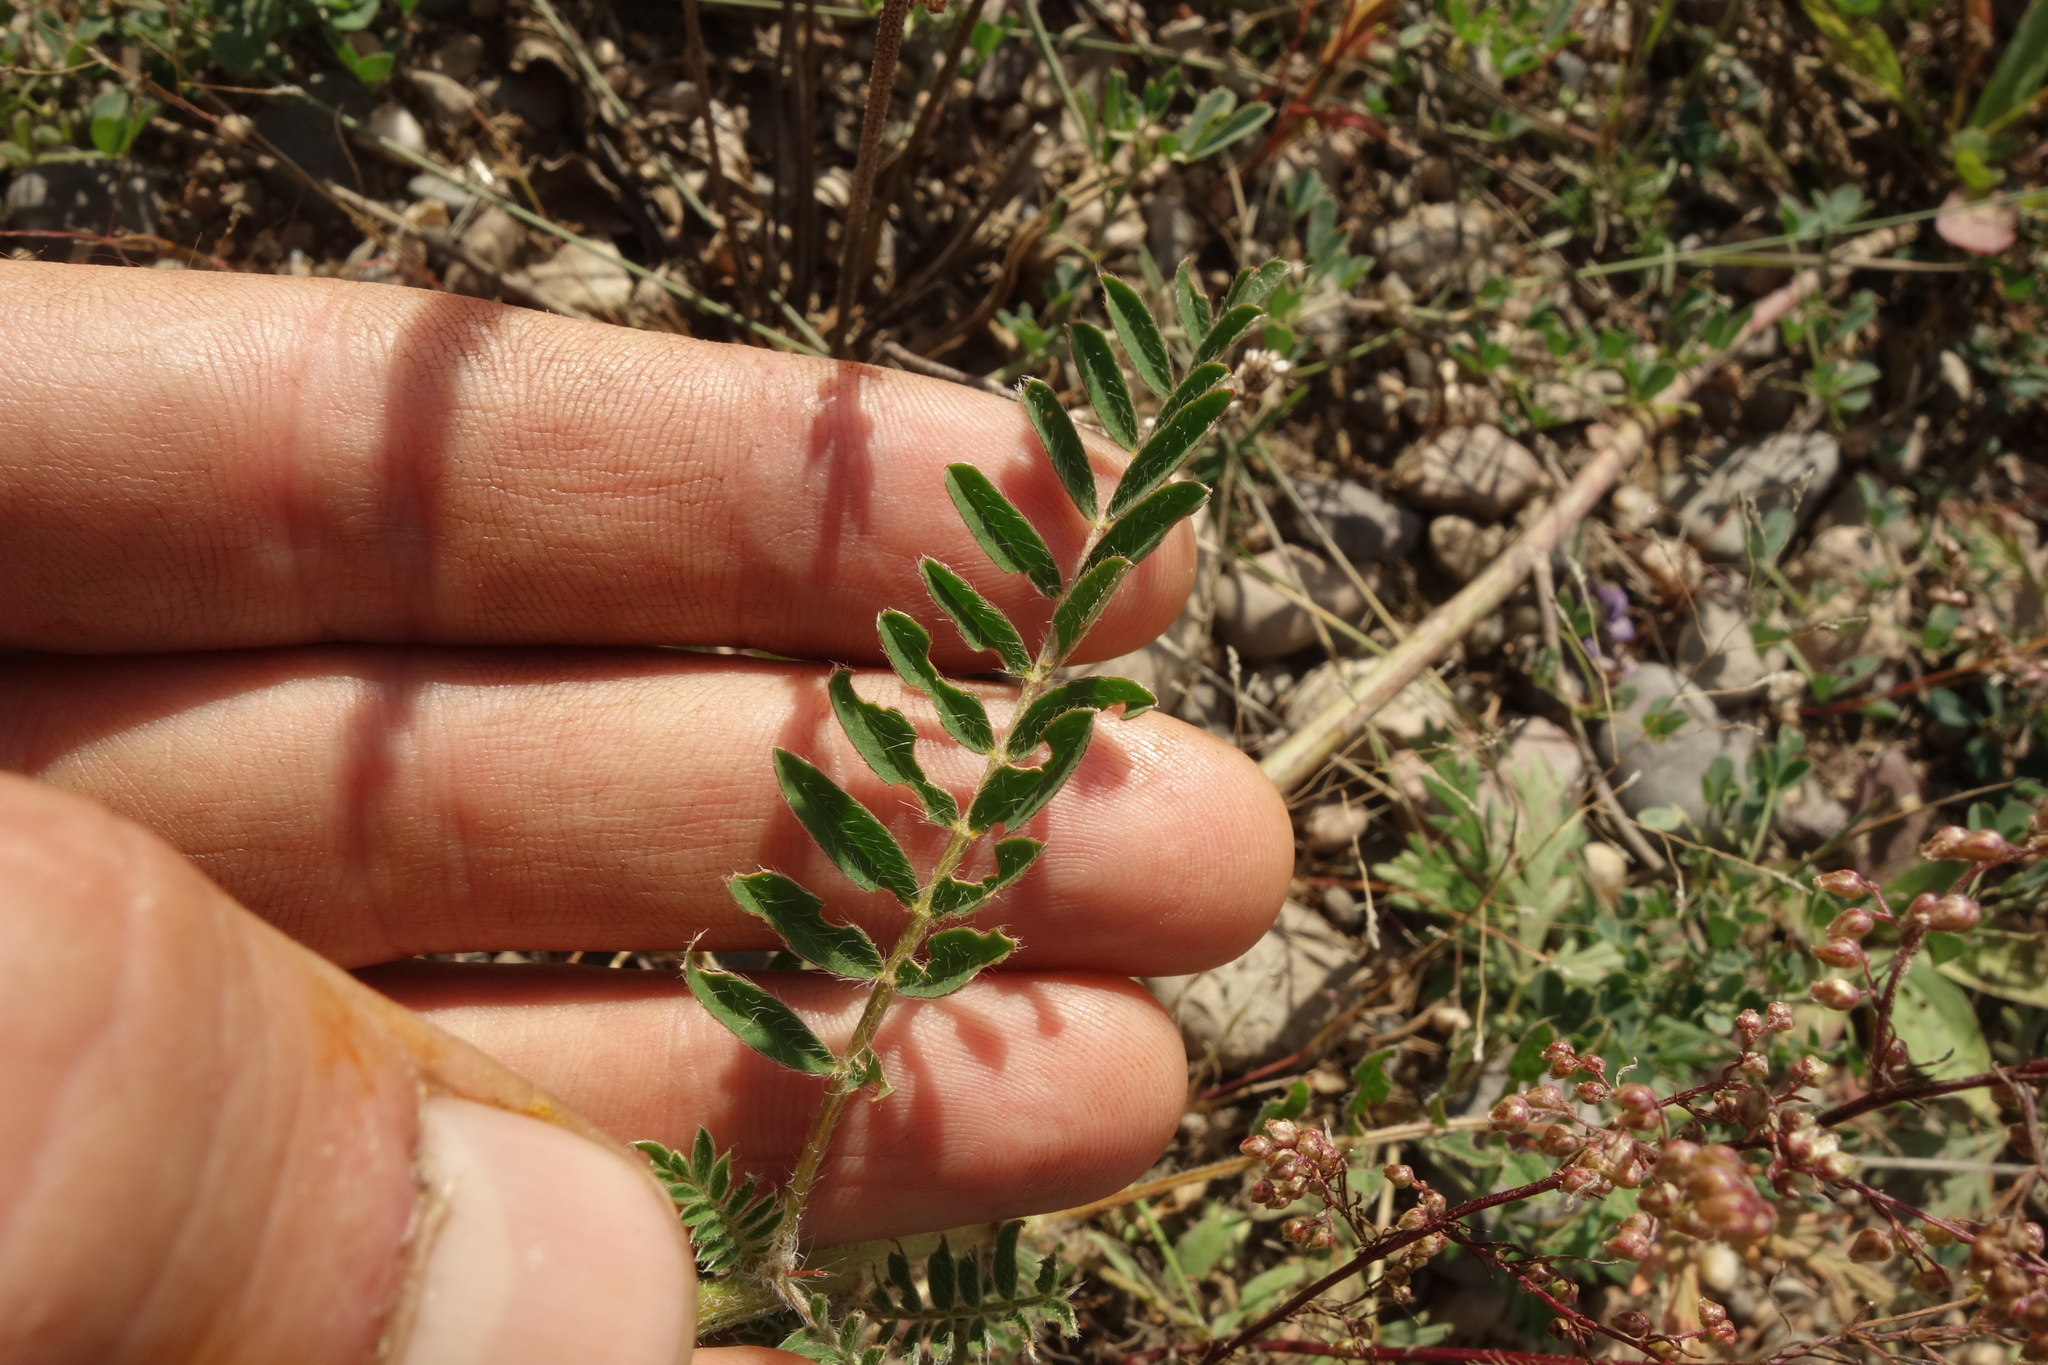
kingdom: Plantae
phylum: Tracheophyta
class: Magnoliopsida
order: Fabales
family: Fabaceae
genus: Astragalus
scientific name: Astragalus davuricus
